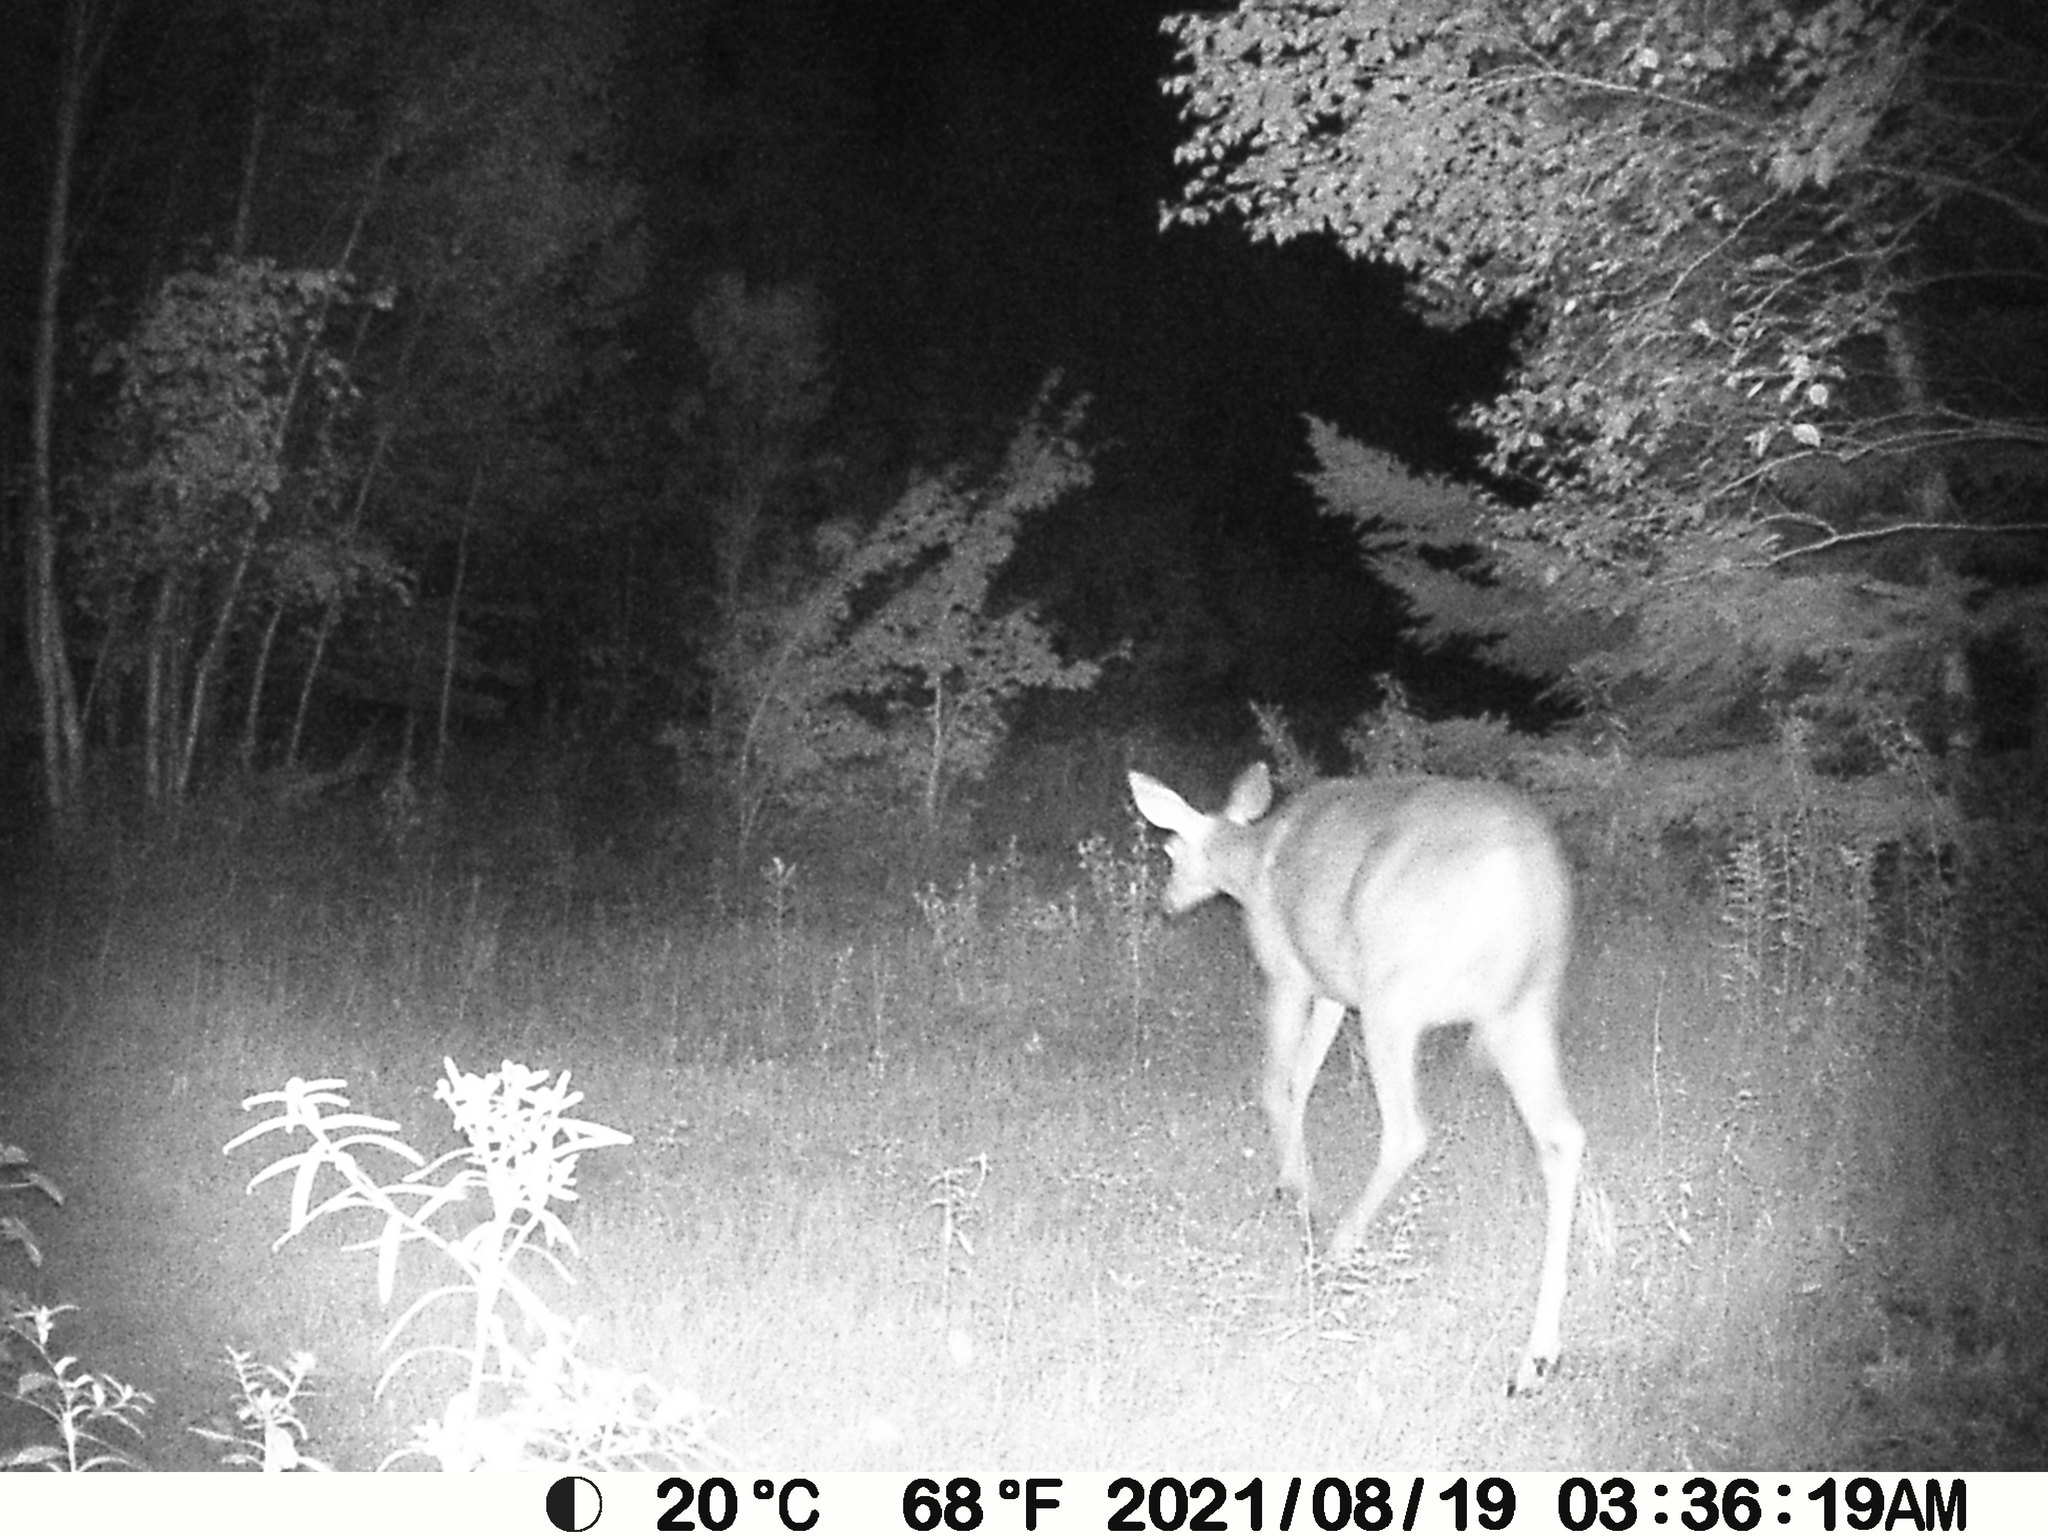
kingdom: Animalia
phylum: Chordata
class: Mammalia
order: Artiodactyla
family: Cervidae
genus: Odocoileus
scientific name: Odocoileus virginianus
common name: White-tailed deer
